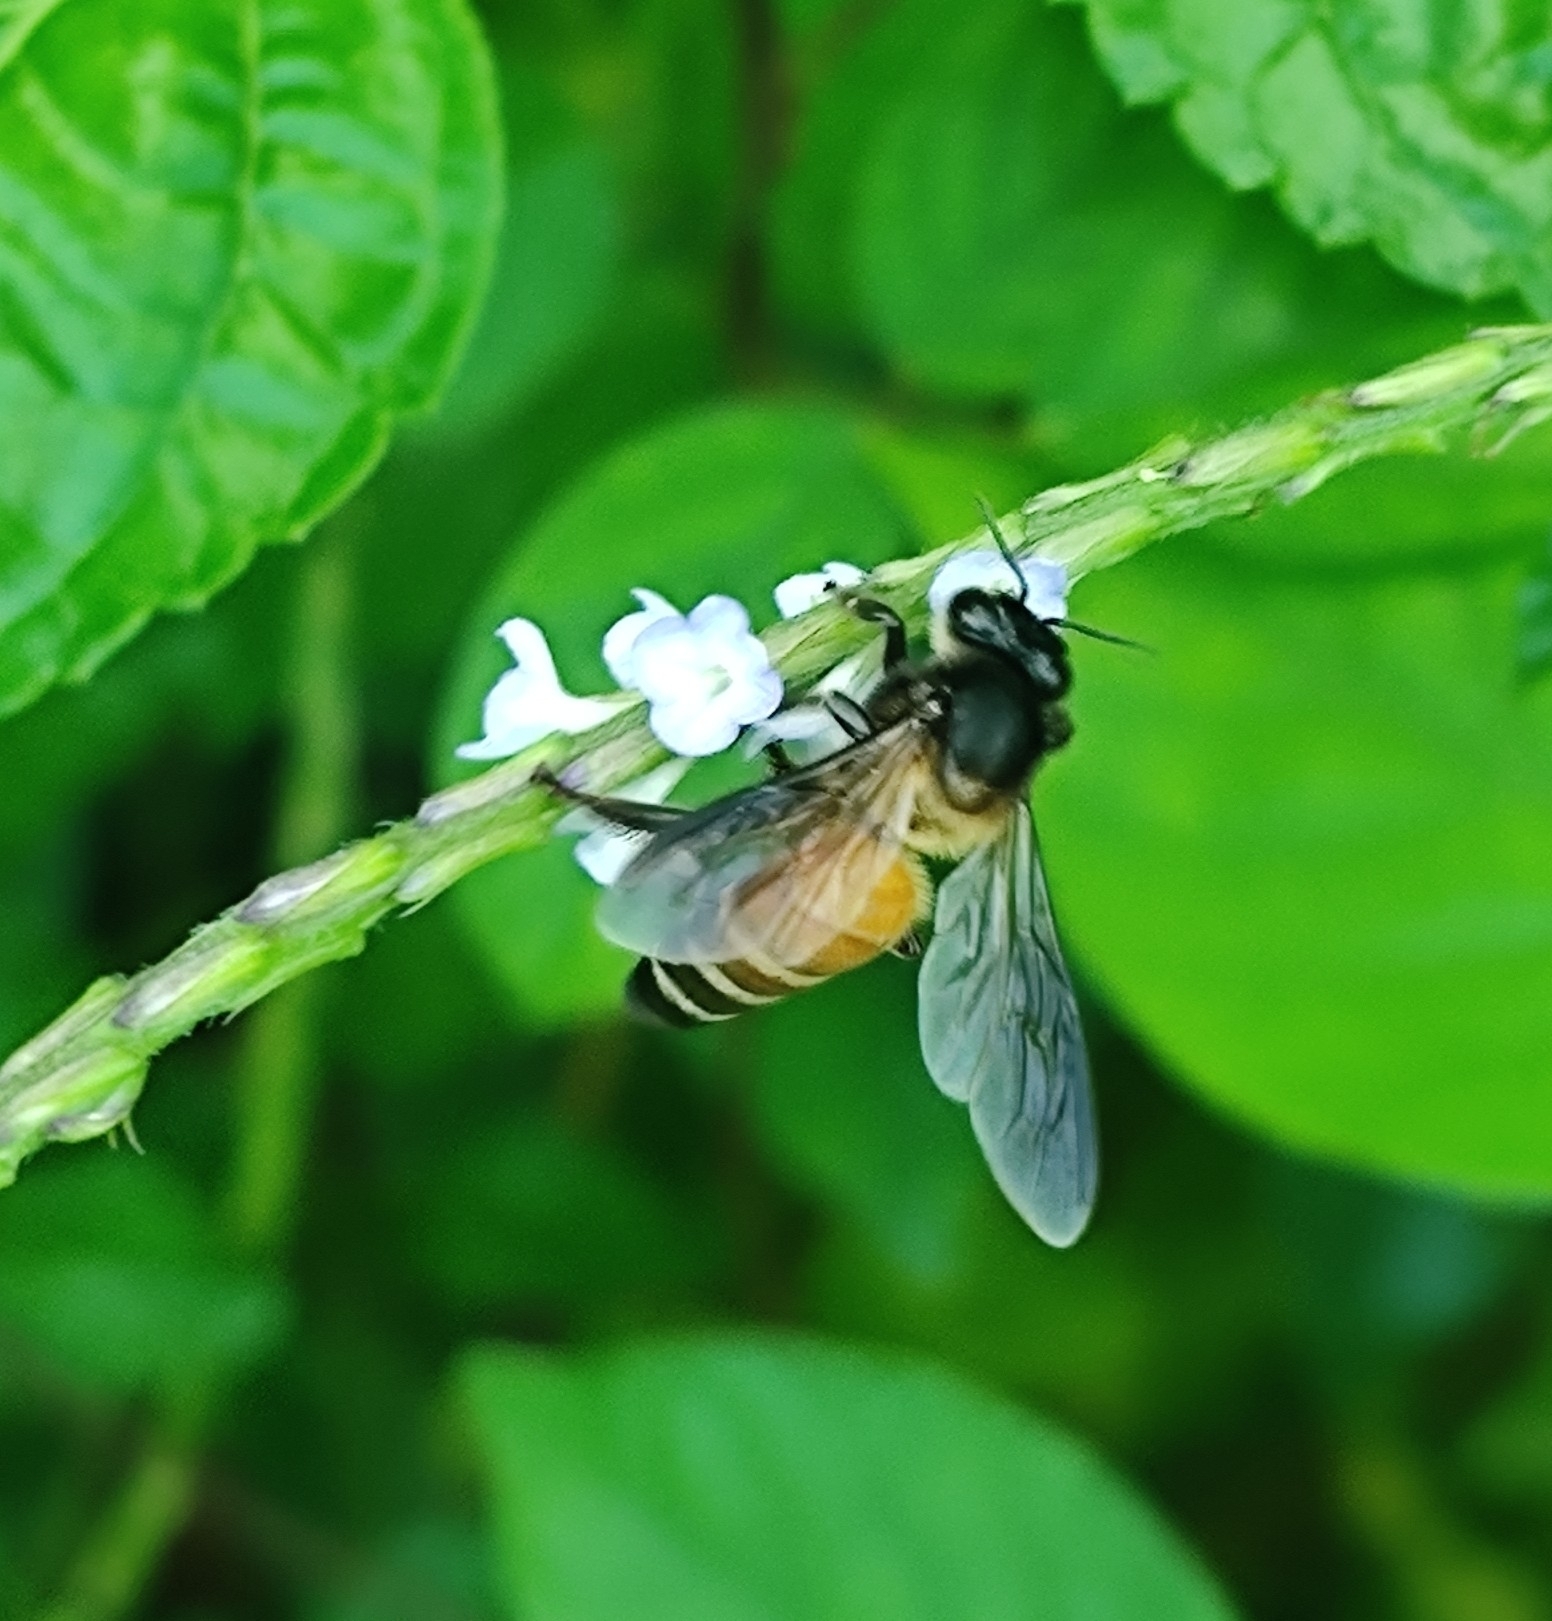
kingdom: Animalia
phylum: Arthropoda
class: Insecta
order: Hymenoptera
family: Apidae
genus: Apis
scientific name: Apis dorsata
